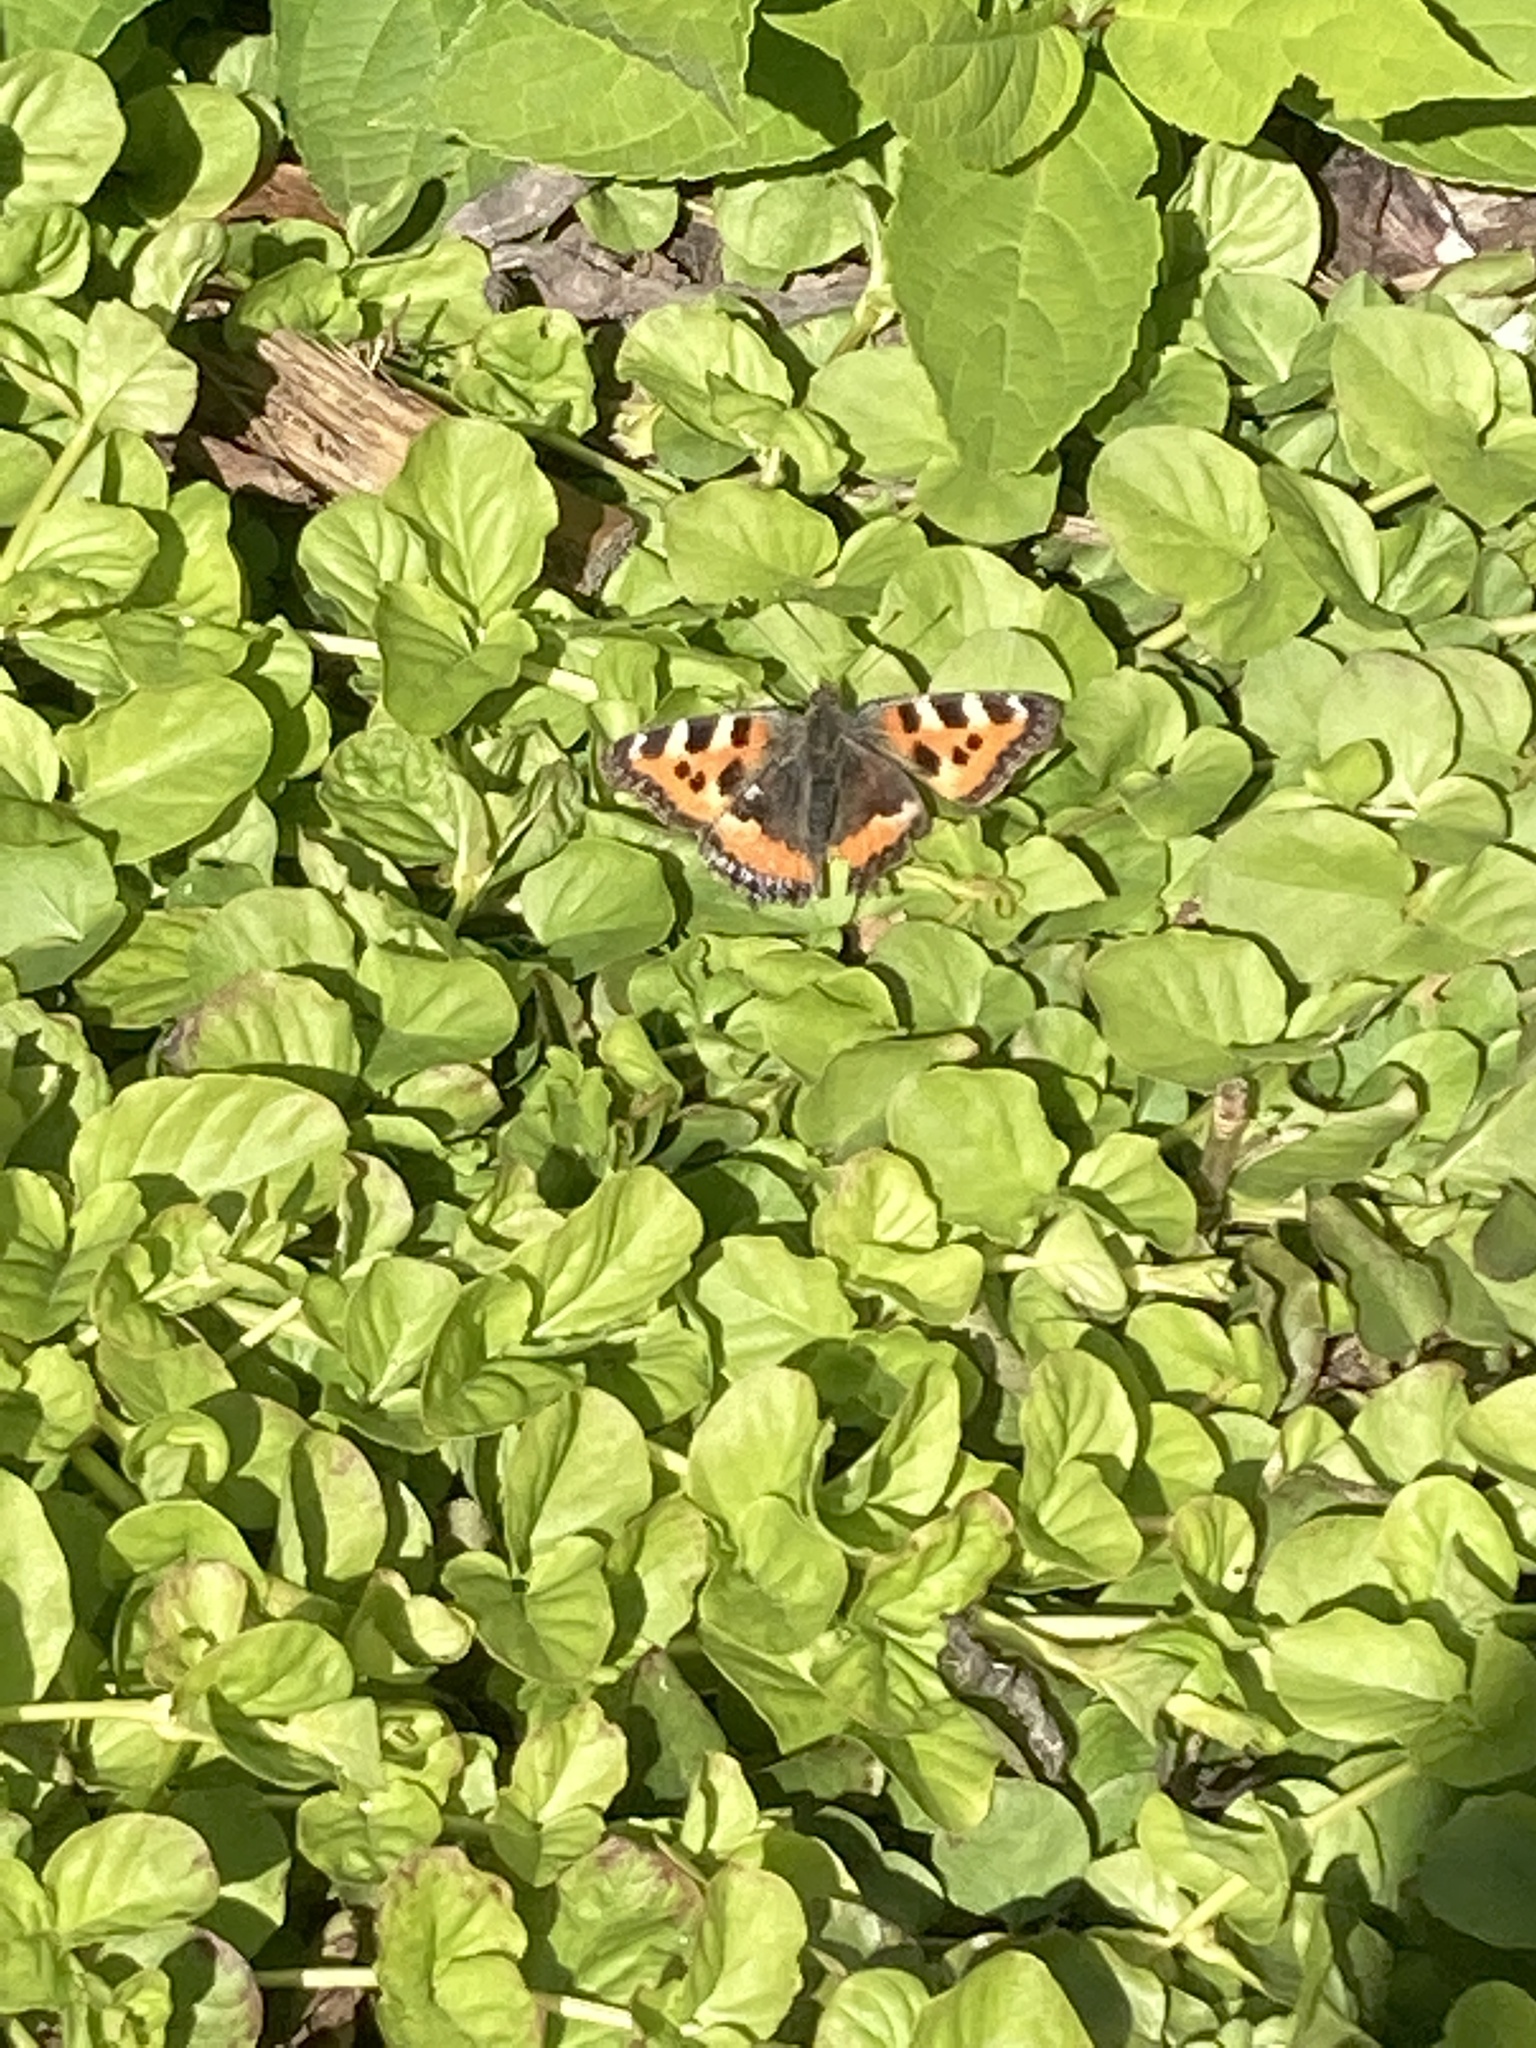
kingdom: Animalia
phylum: Arthropoda
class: Insecta
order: Lepidoptera
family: Nymphalidae
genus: Aglais
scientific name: Aglais urticae
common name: Small tortoiseshell
